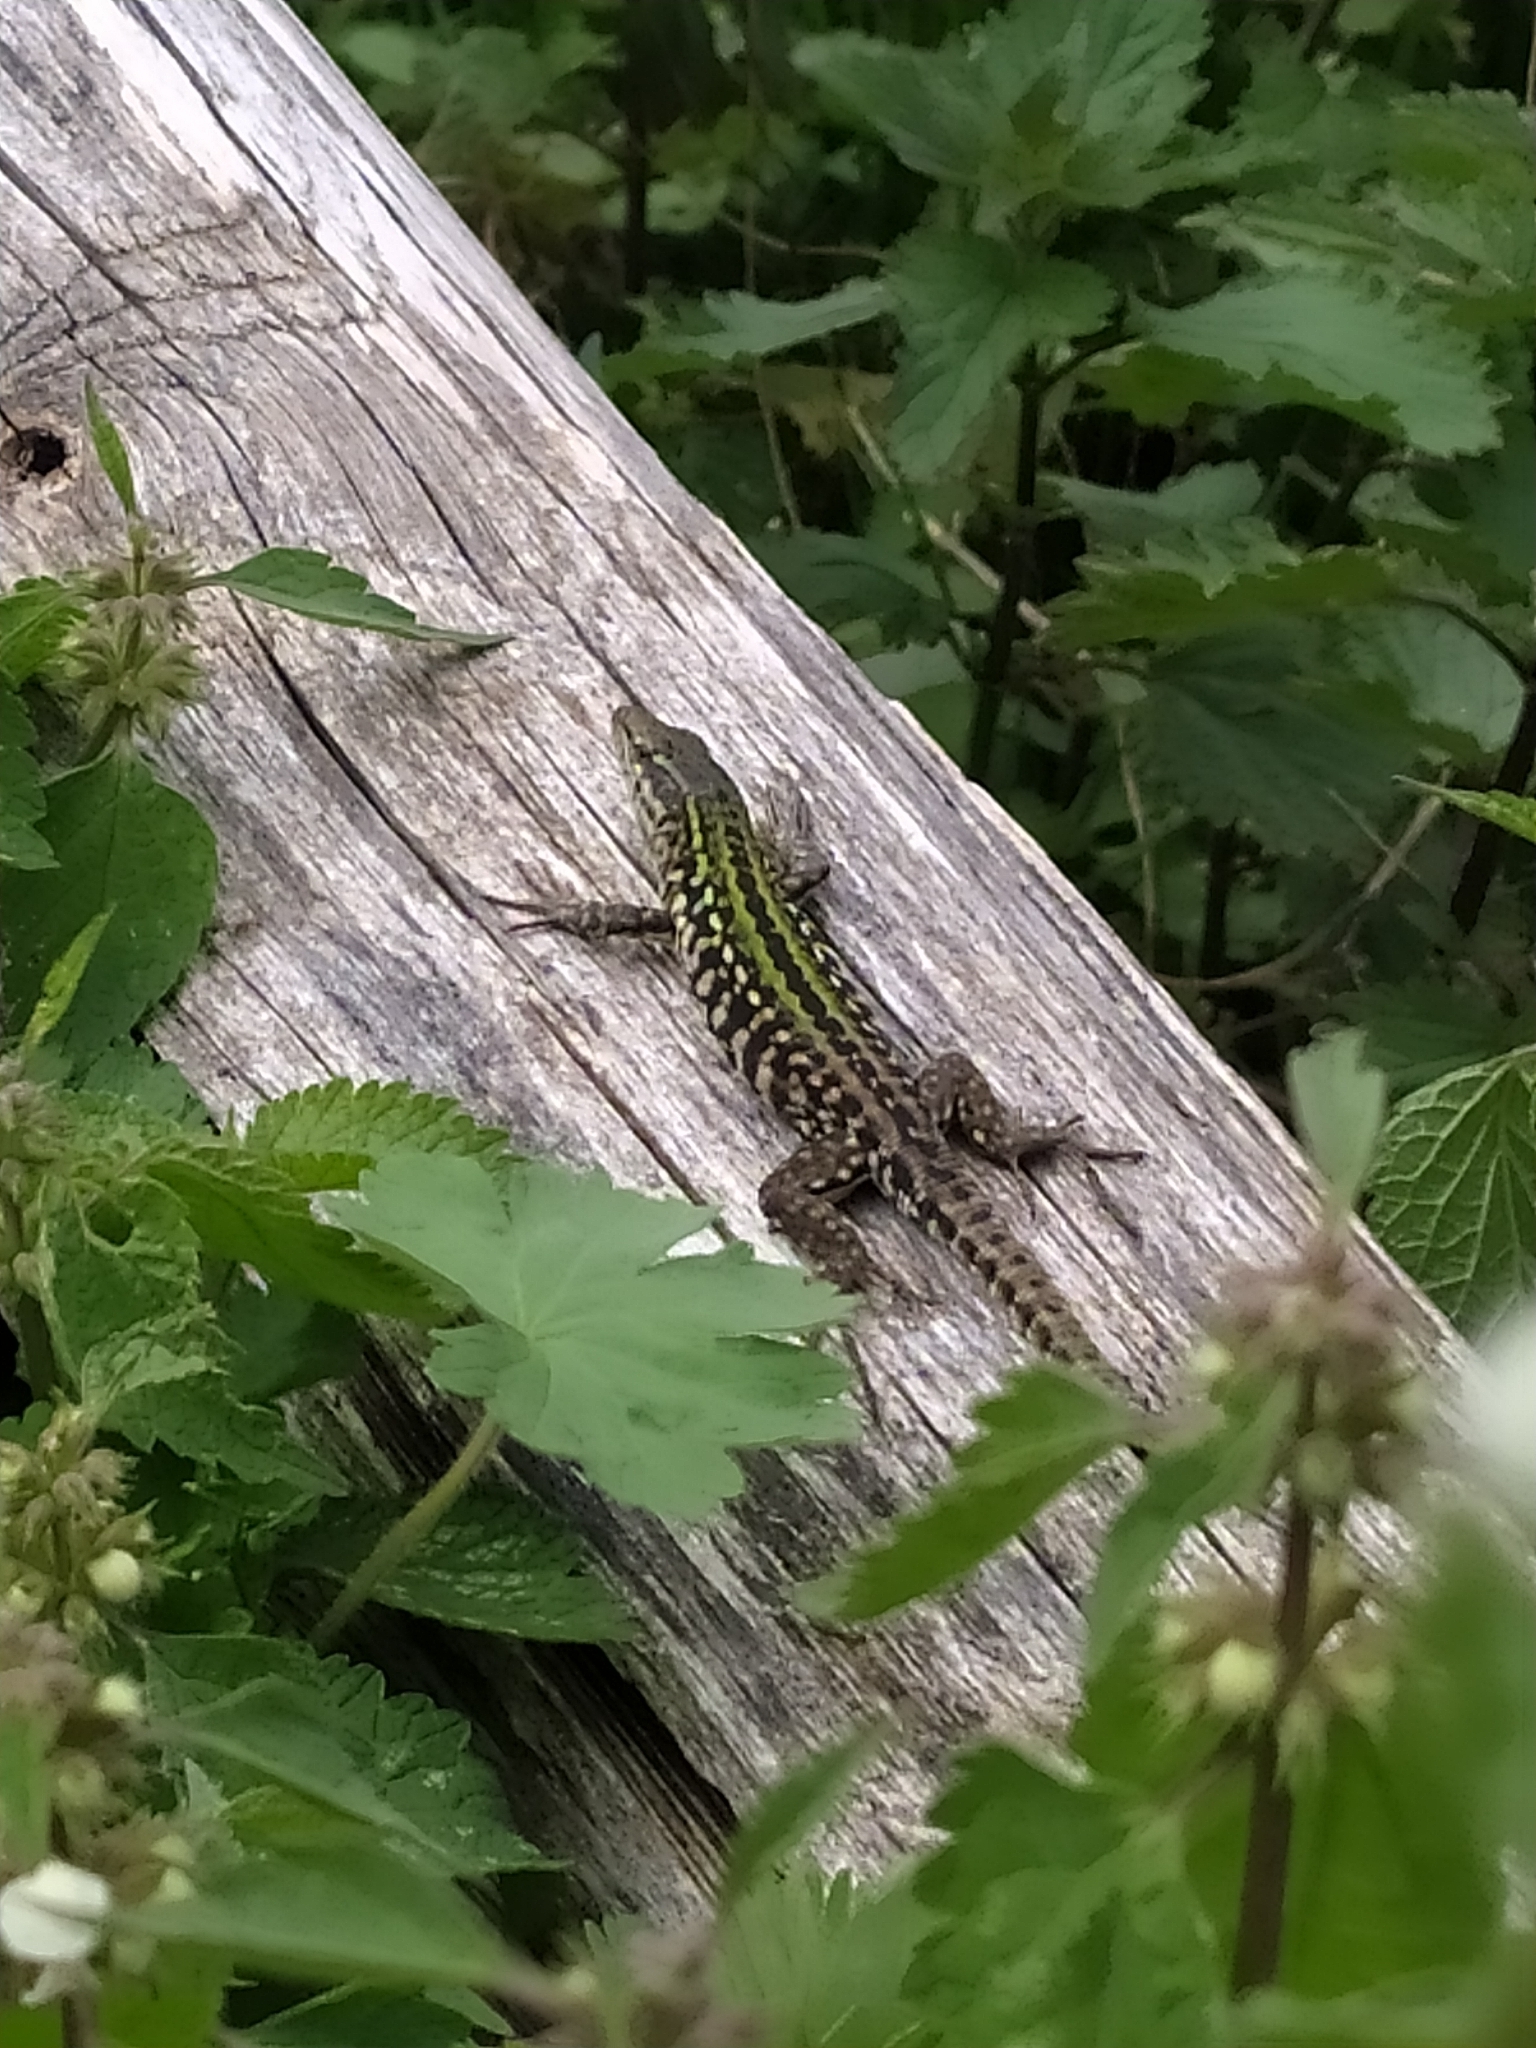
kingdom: Animalia
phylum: Chordata
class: Squamata
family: Lacertidae
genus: Podarcis
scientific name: Podarcis siculus
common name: Italian wall lizard
